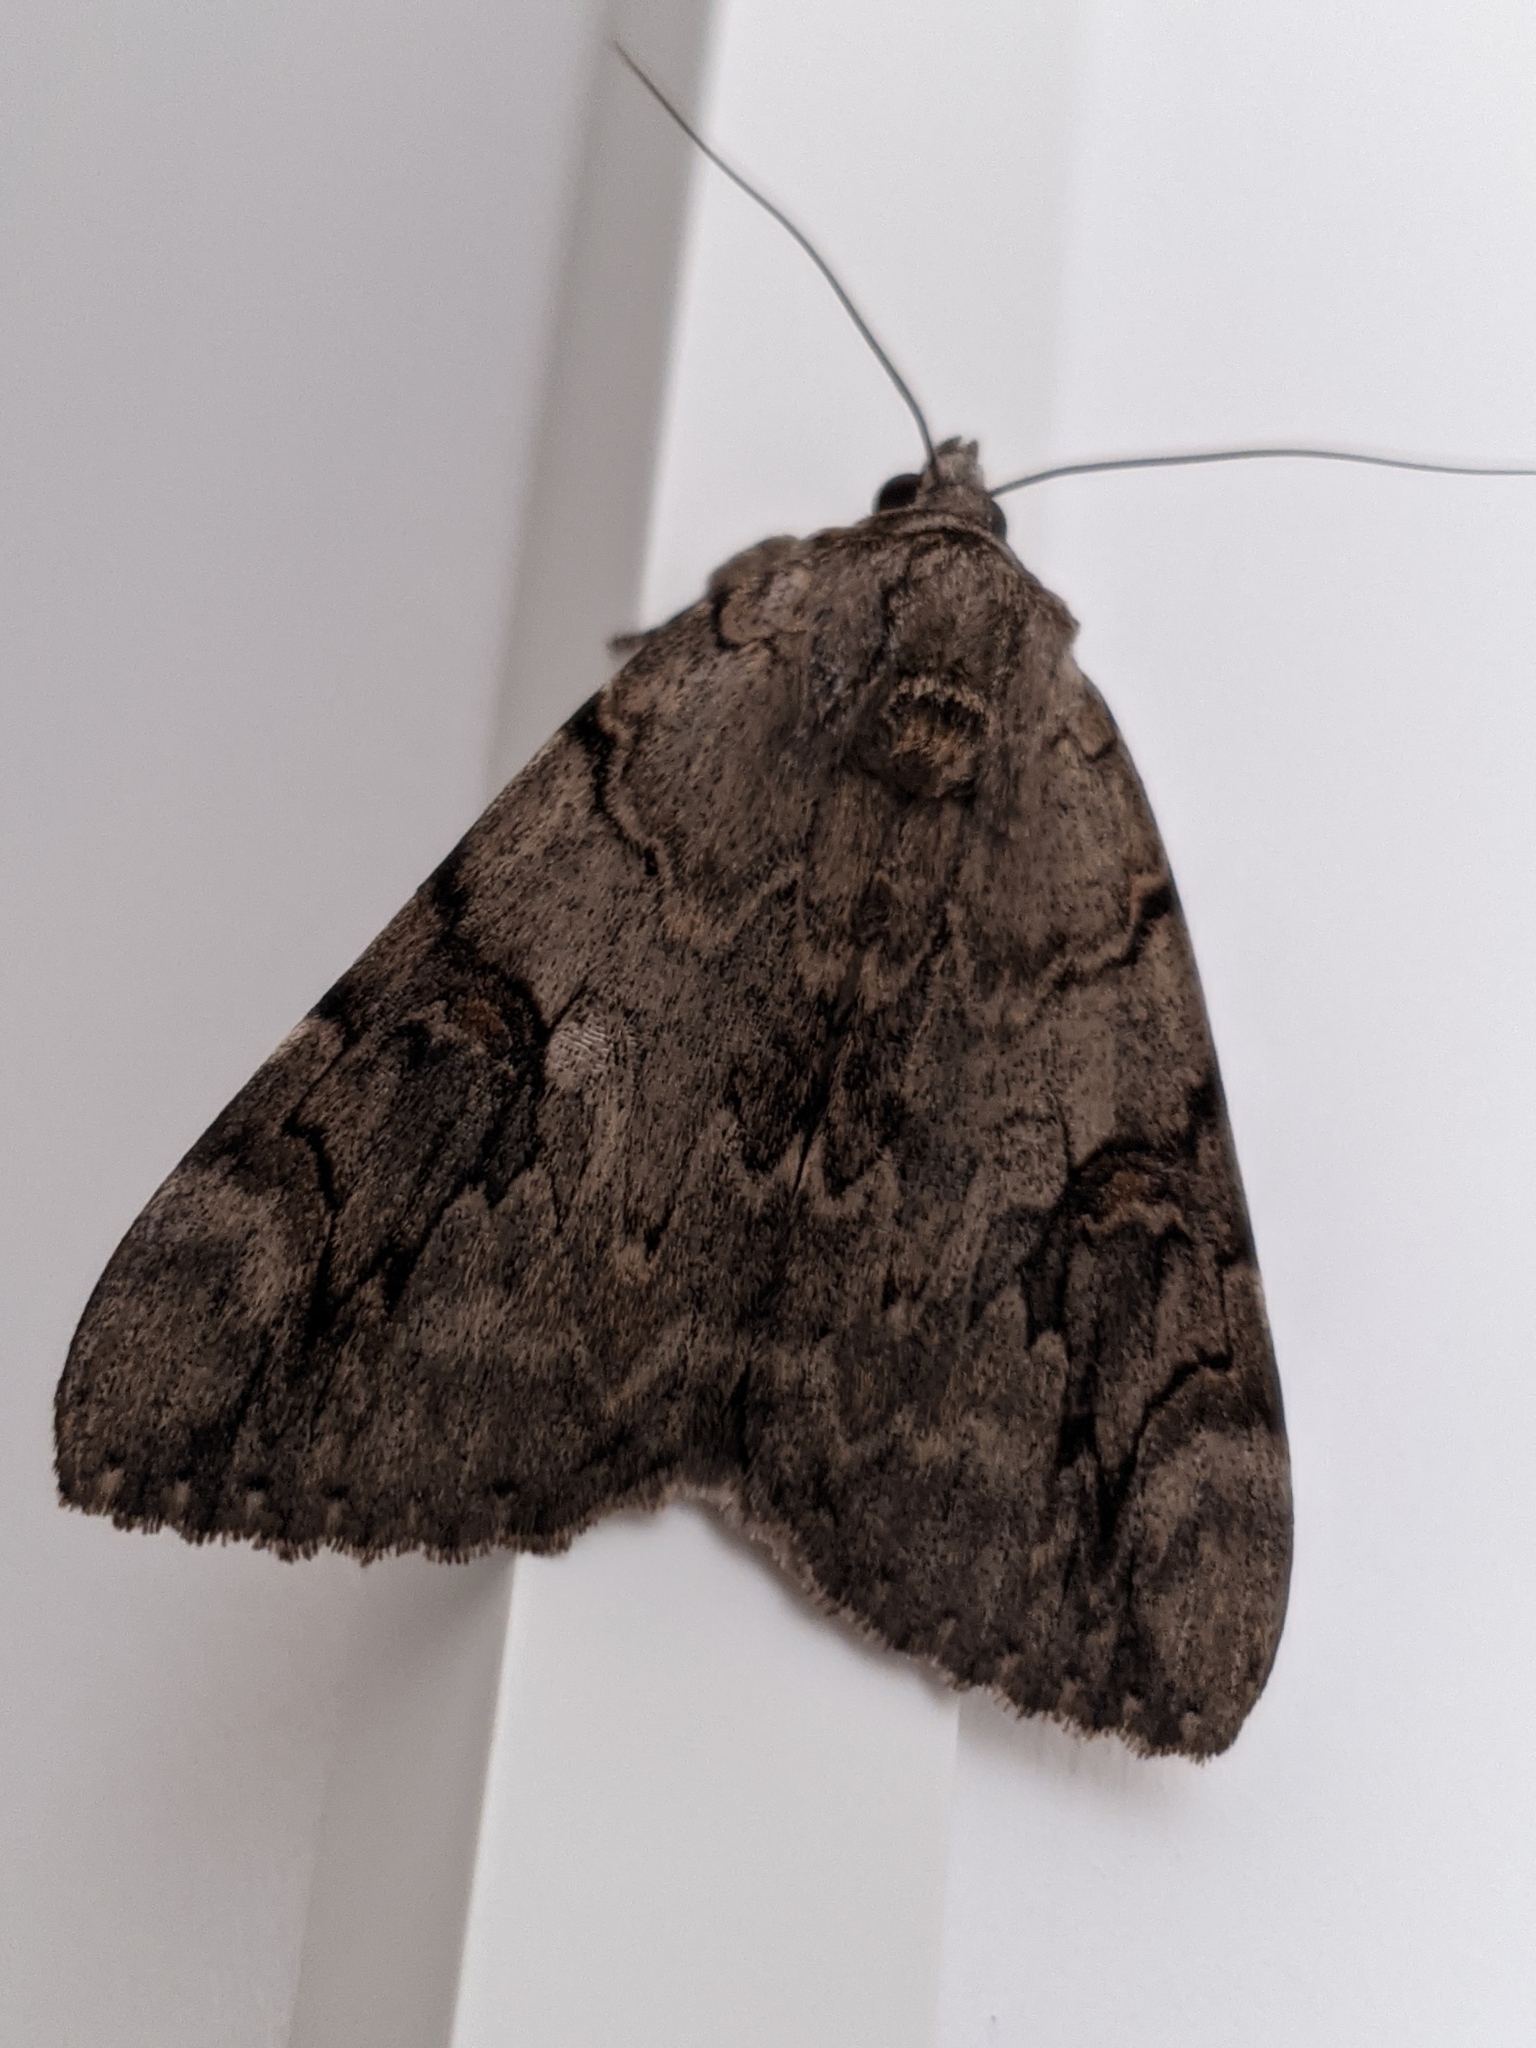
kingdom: Animalia
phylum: Arthropoda
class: Insecta
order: Lepidoptera
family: Erebidae
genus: Catocala
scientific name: Catocala electa
